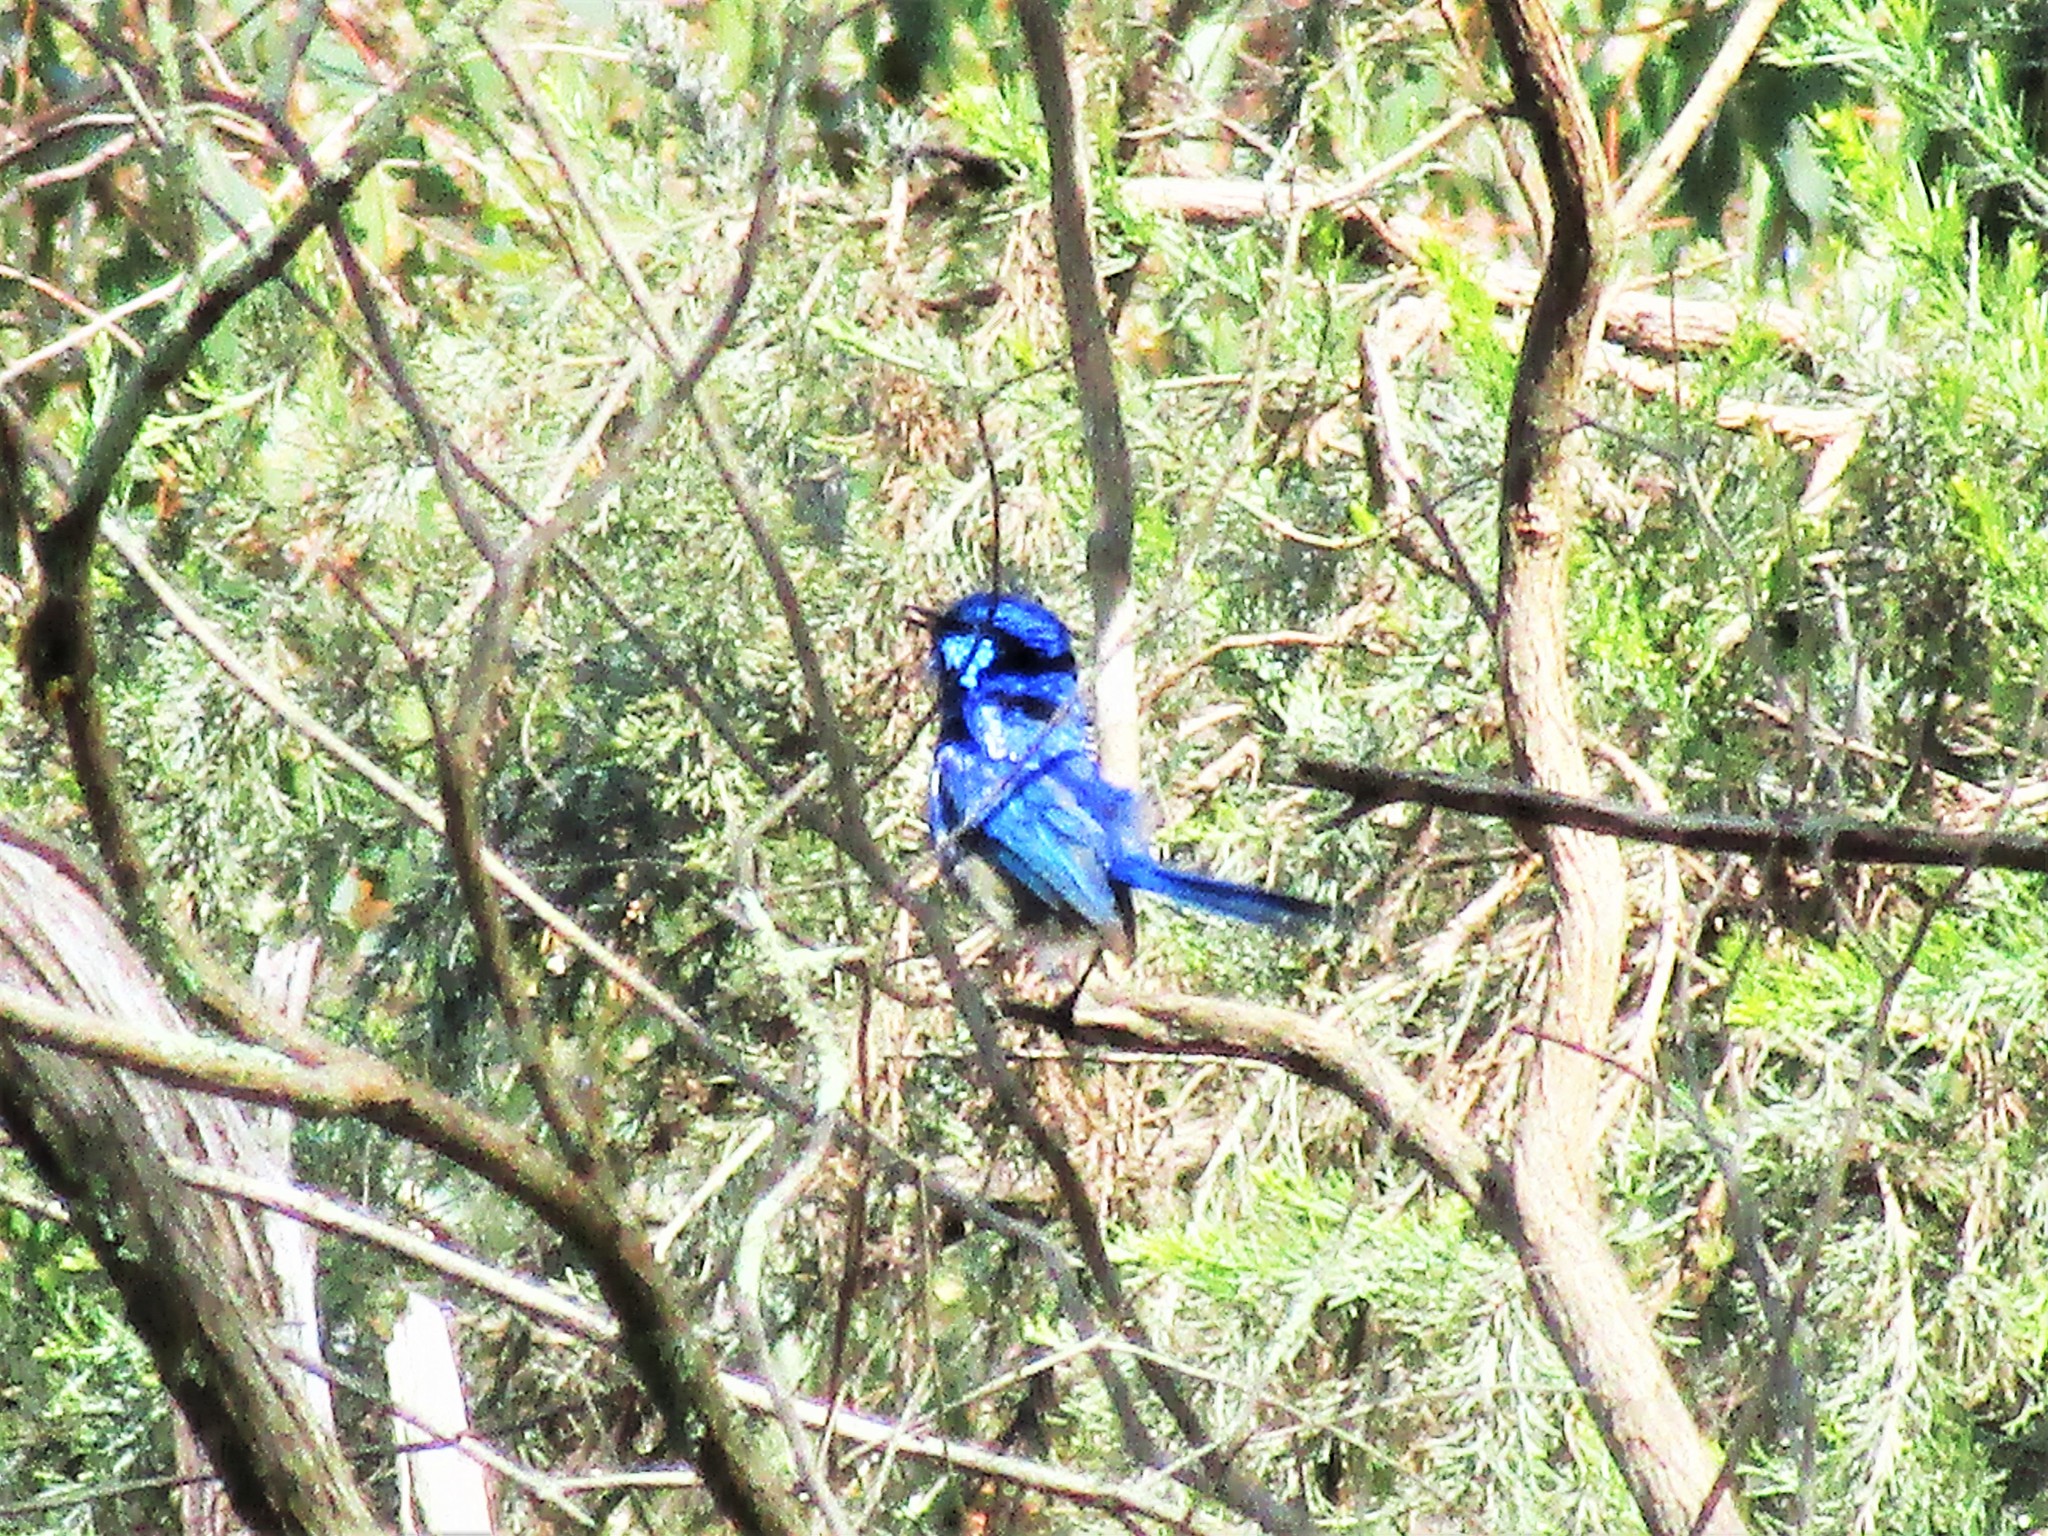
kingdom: Animalia
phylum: Chordata
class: Aves
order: Passeriformes
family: Maluridae
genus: Malurus
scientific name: Malurus splendens
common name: Splendid fairywren
